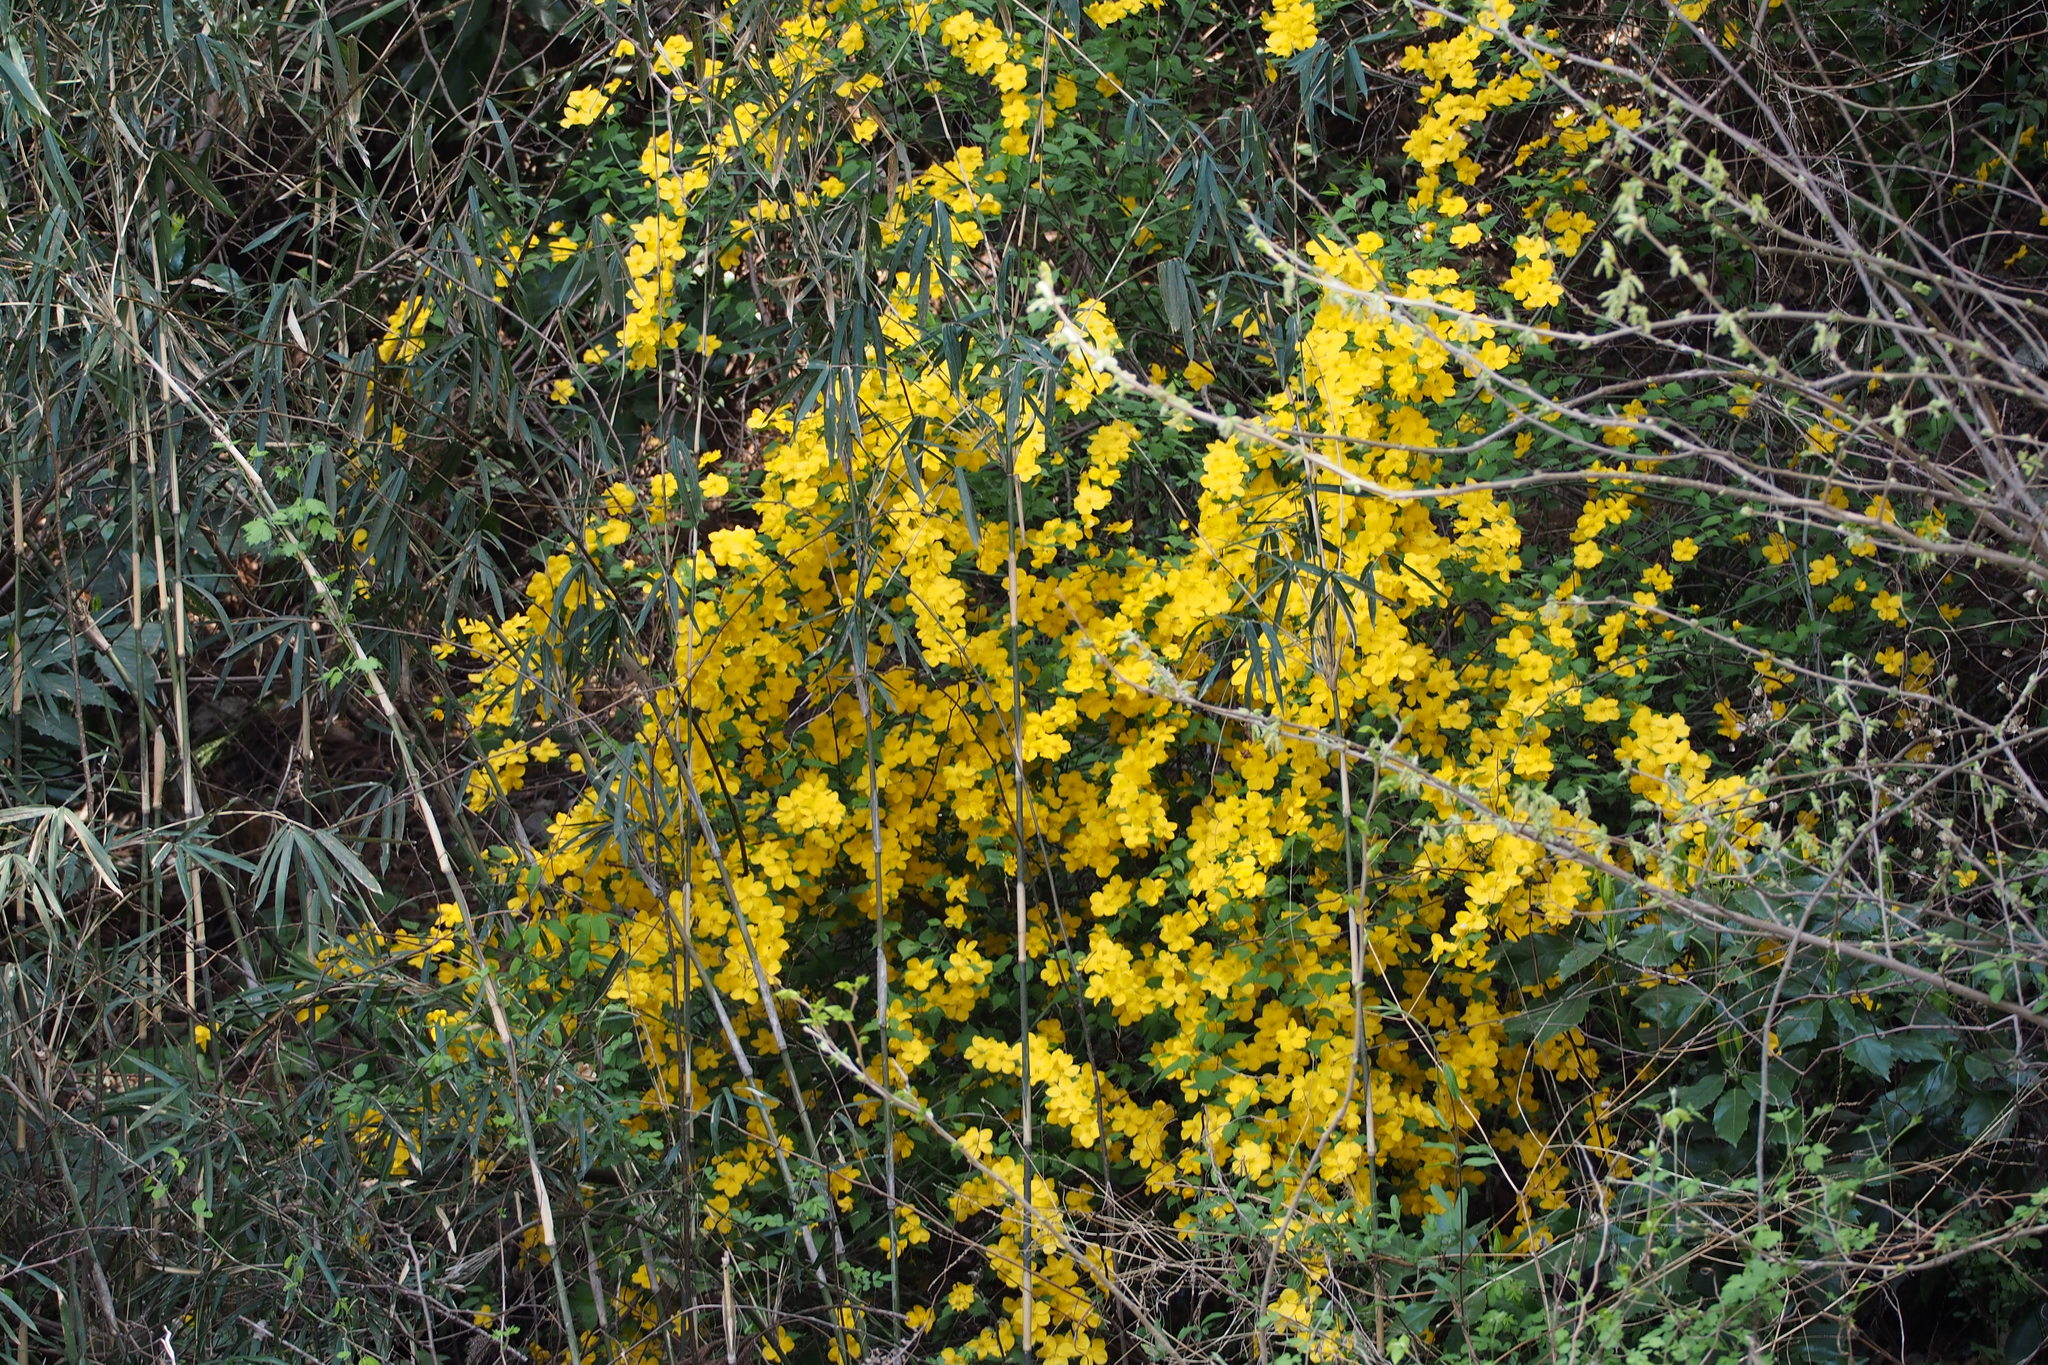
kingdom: Plantae
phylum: Tracheophyta
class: Magnoliopsida
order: Rosales
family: Rosaceae
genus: Kerria
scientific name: Kerria japonica
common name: Japanese kerria
